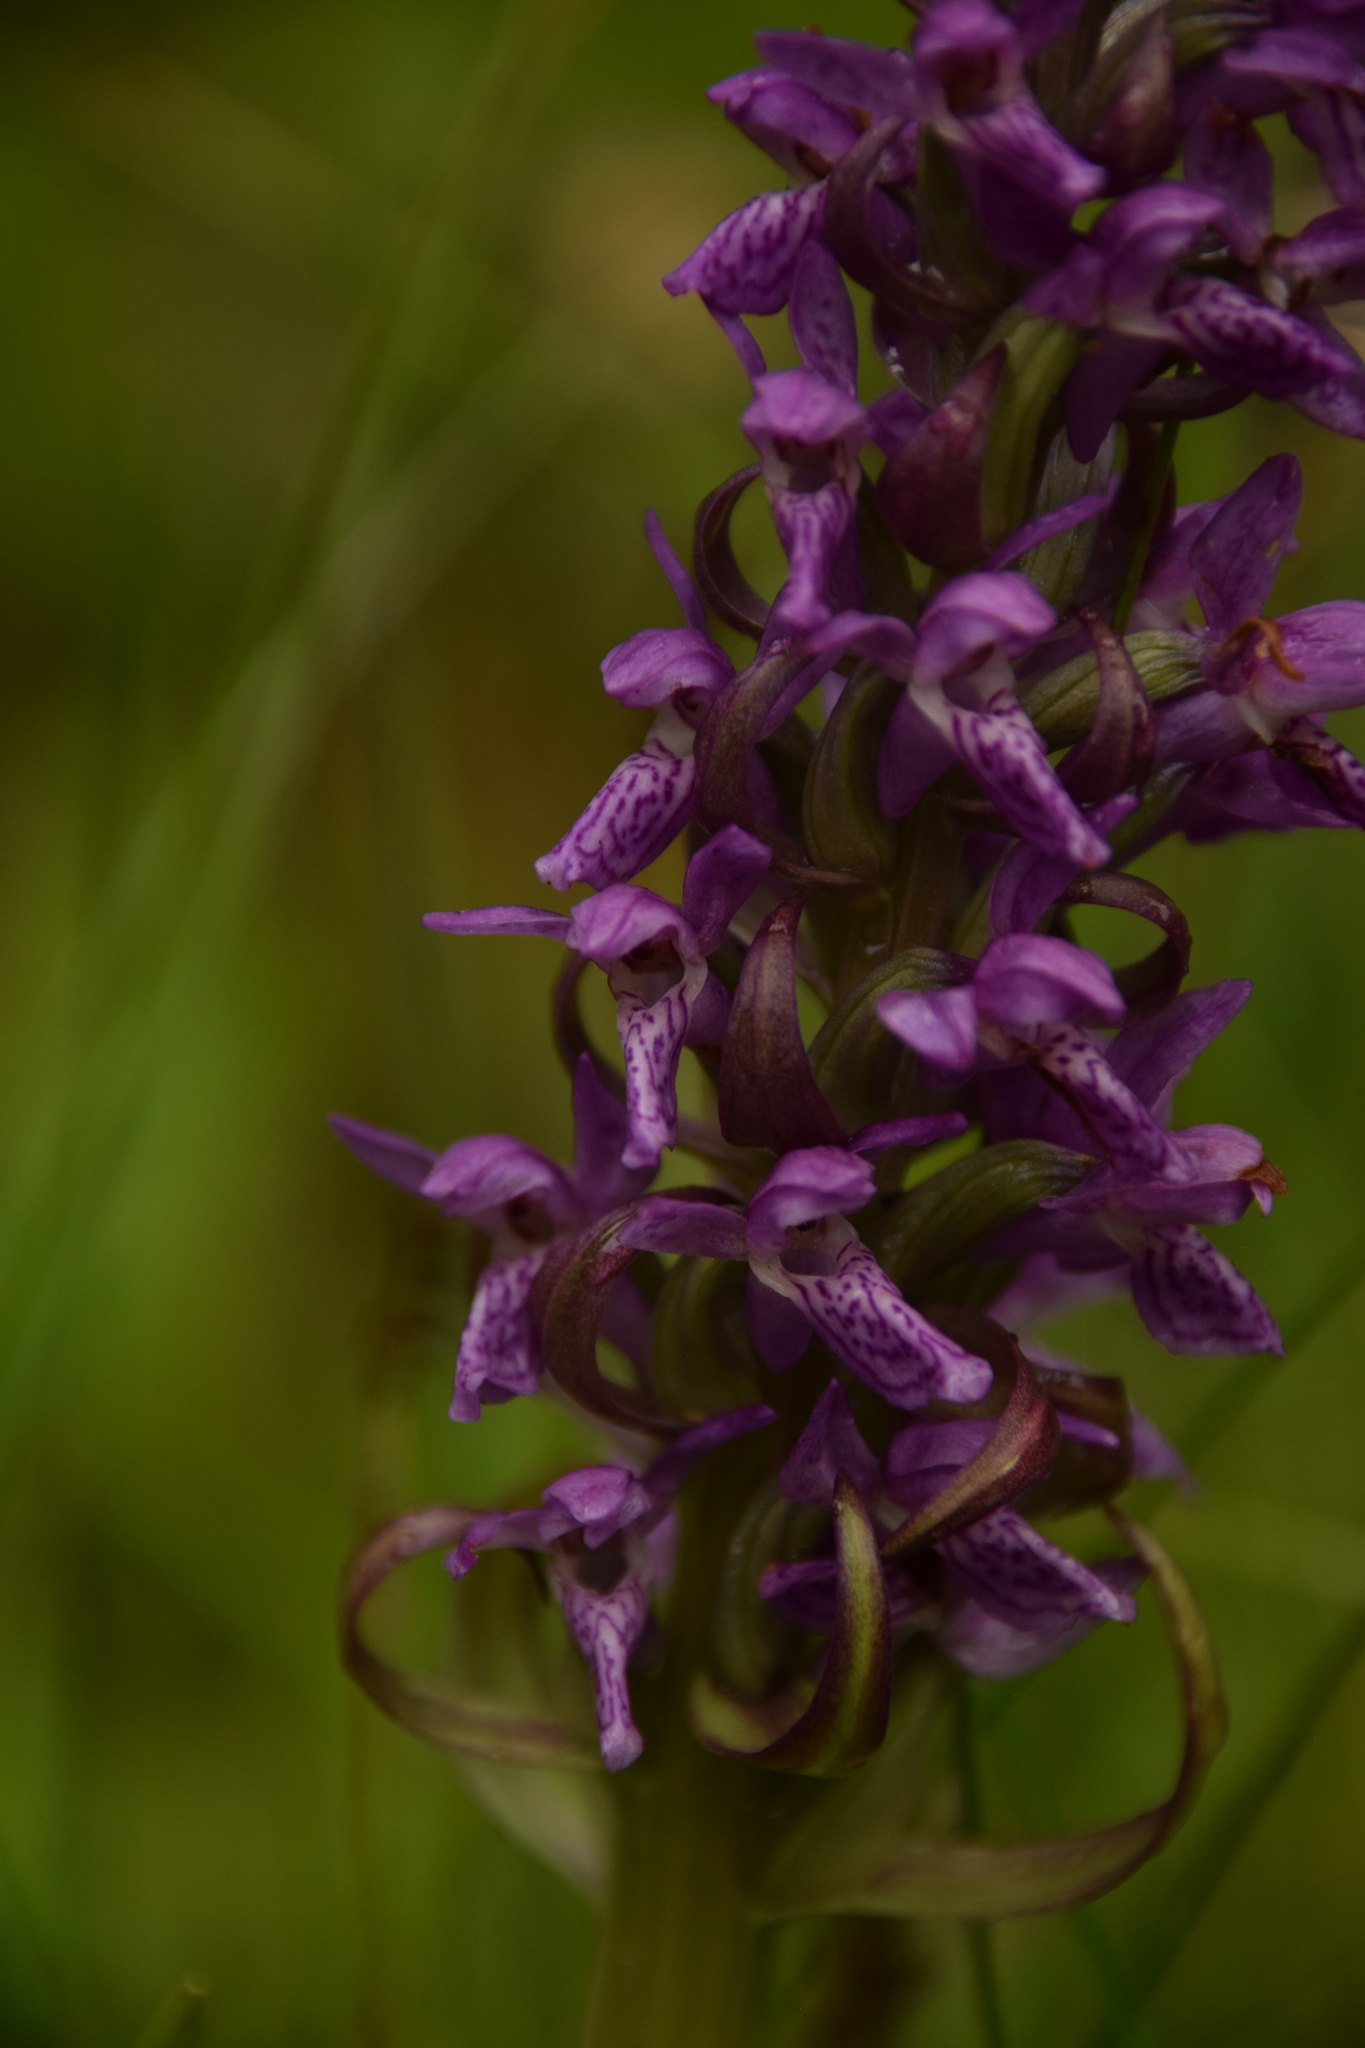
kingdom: Plantae
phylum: Tracheophyta
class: Liliopsida
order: Asparagales
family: Orchidaceae
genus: Dactylorhiza
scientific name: Dactylorhiza incarnata
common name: Early marsh-orchid
